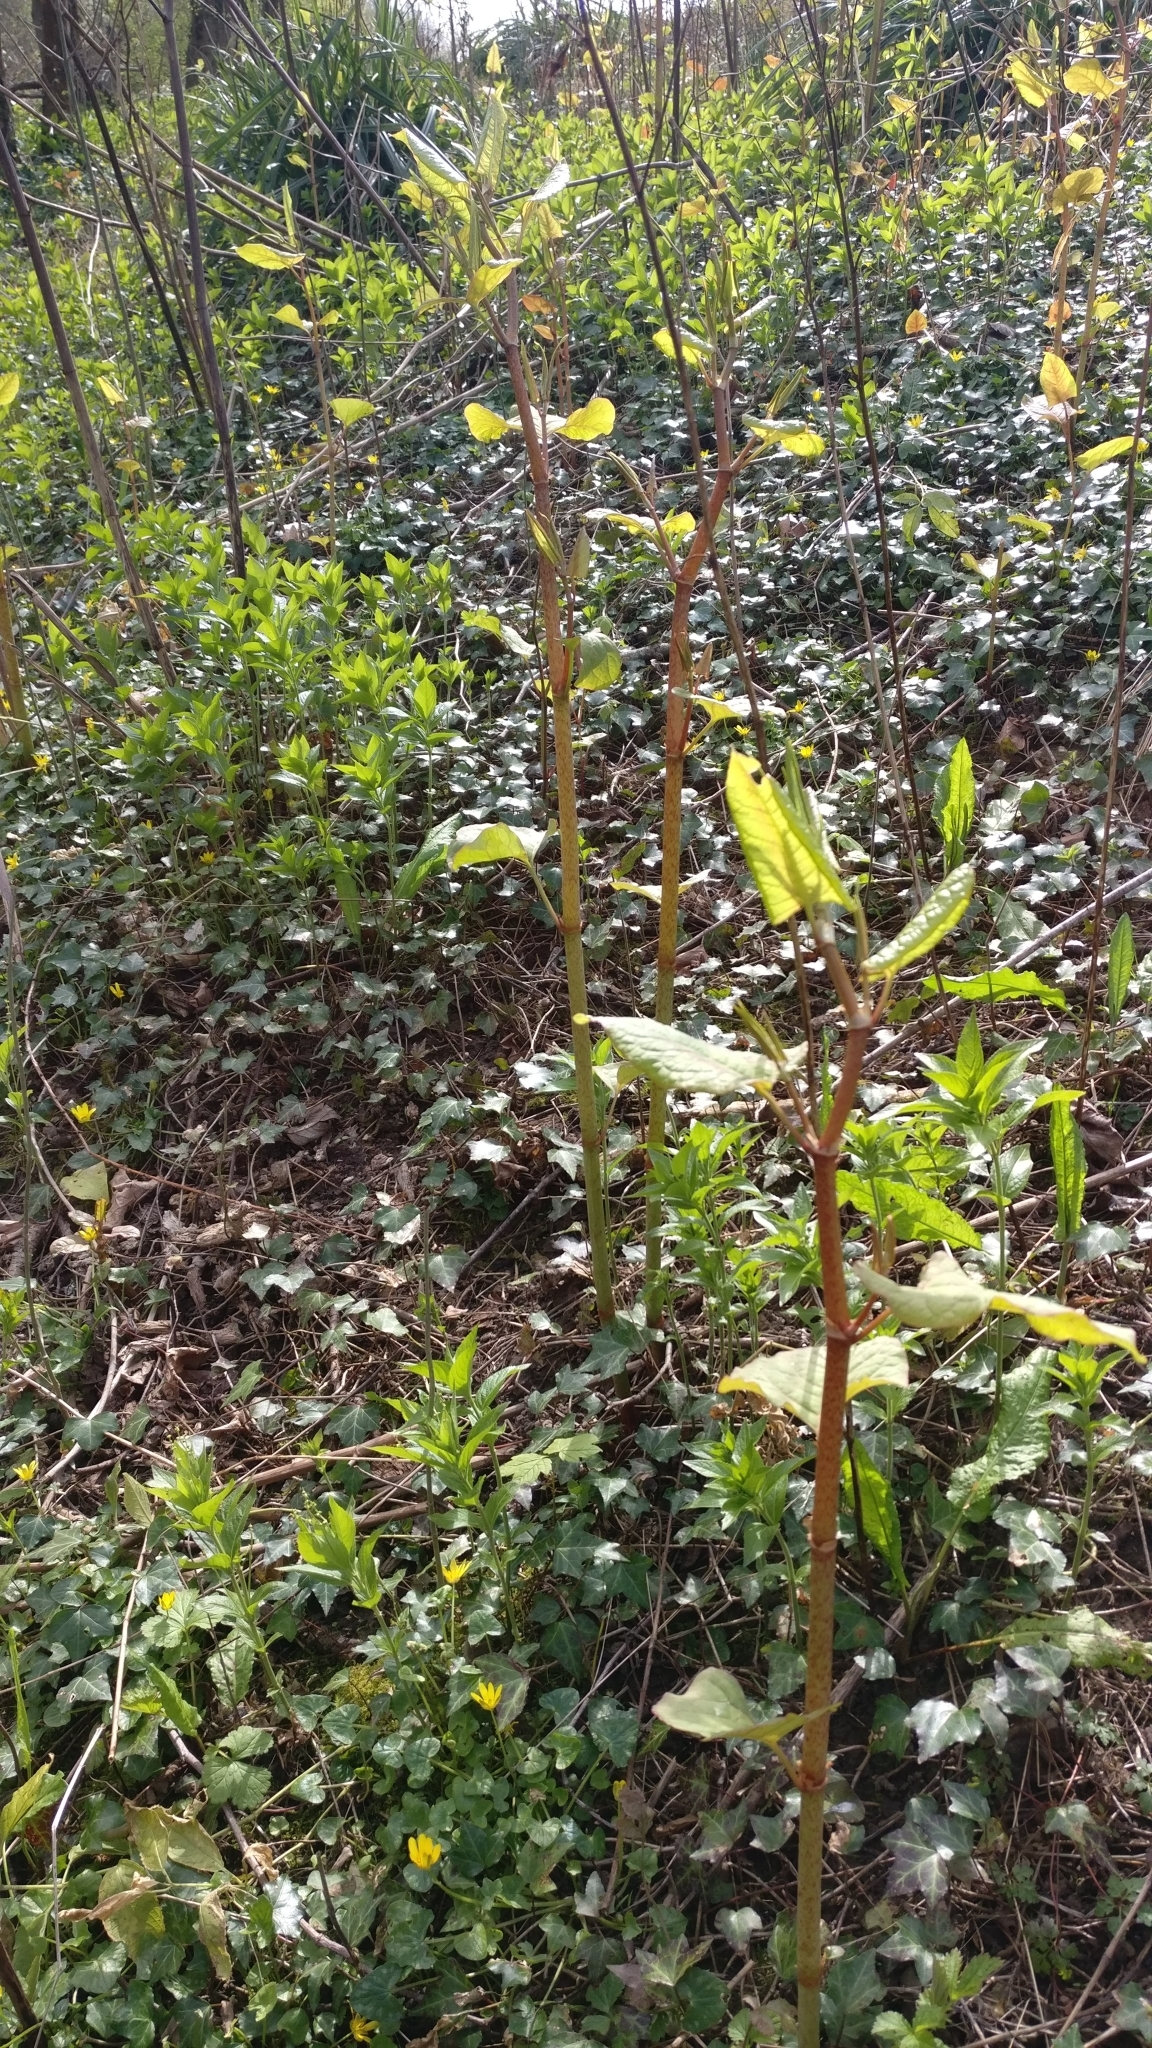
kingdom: Plantae
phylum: Tracheophyta
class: Magnoliopsida
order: Caryophyllales
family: Polygonaceae
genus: Reynoutria
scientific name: Reynoutria japonica
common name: Japanese knotweed
